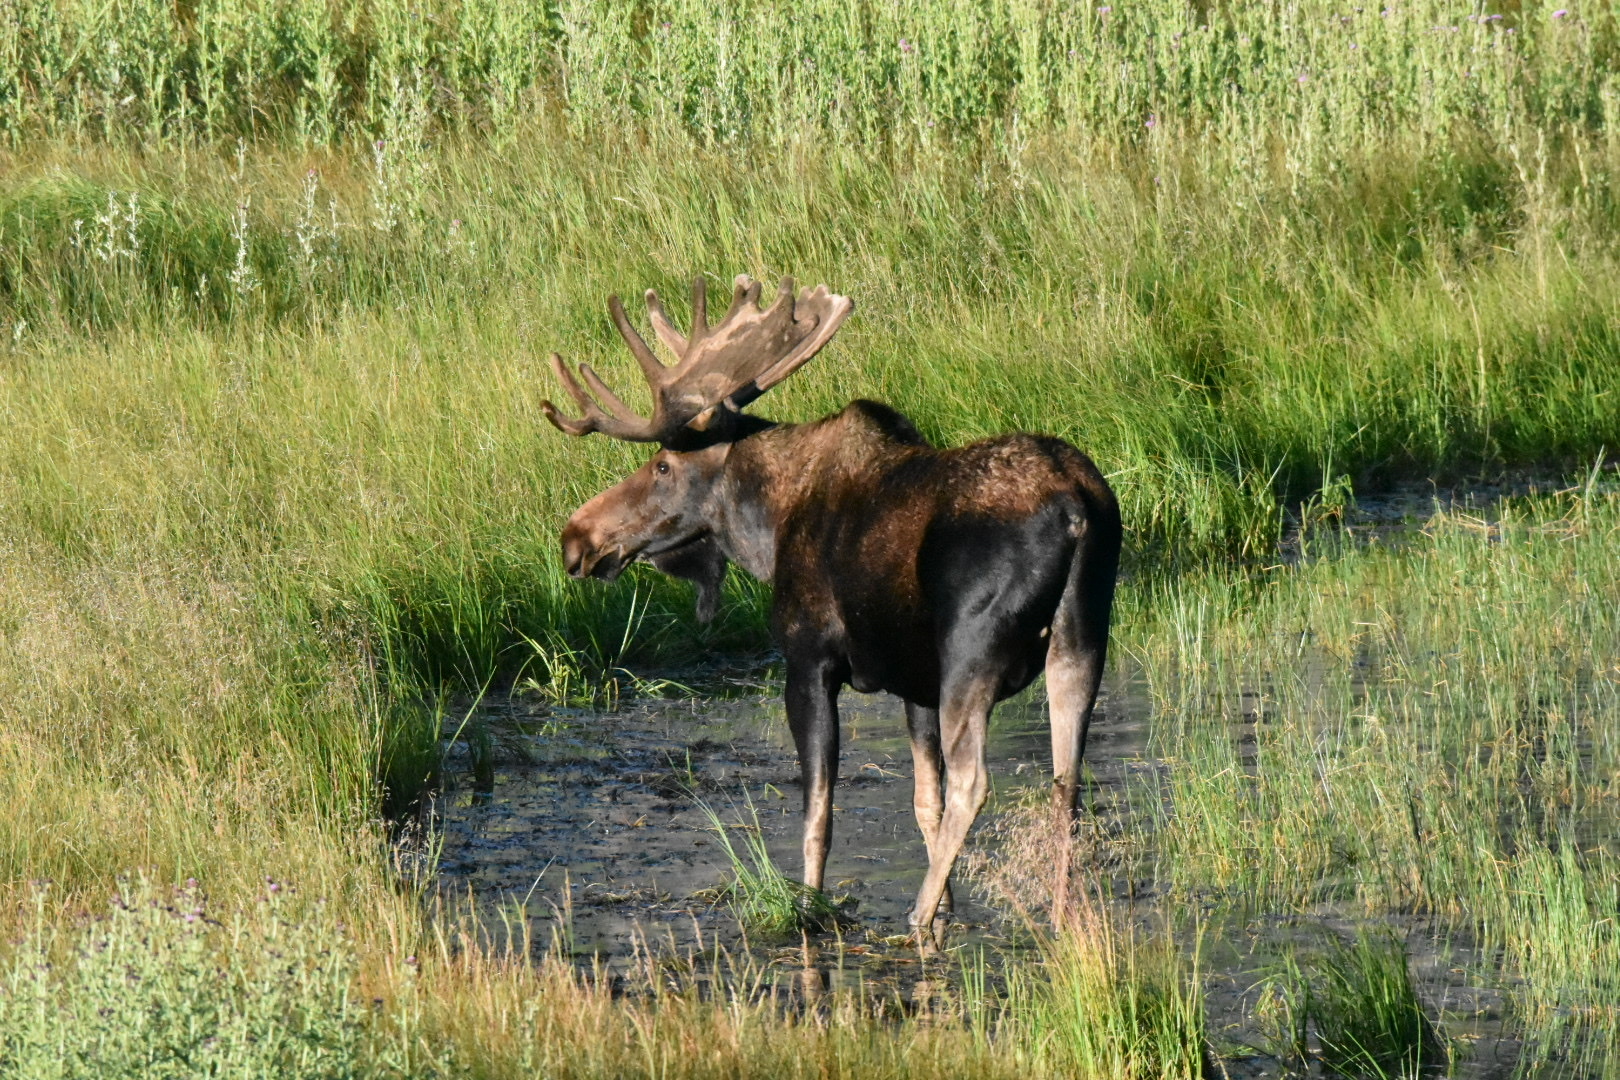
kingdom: Animalia
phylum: Chordata
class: Mammalia
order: Artiodactyla
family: Cervidae
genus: Alces
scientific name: Alces alces
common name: Moose
